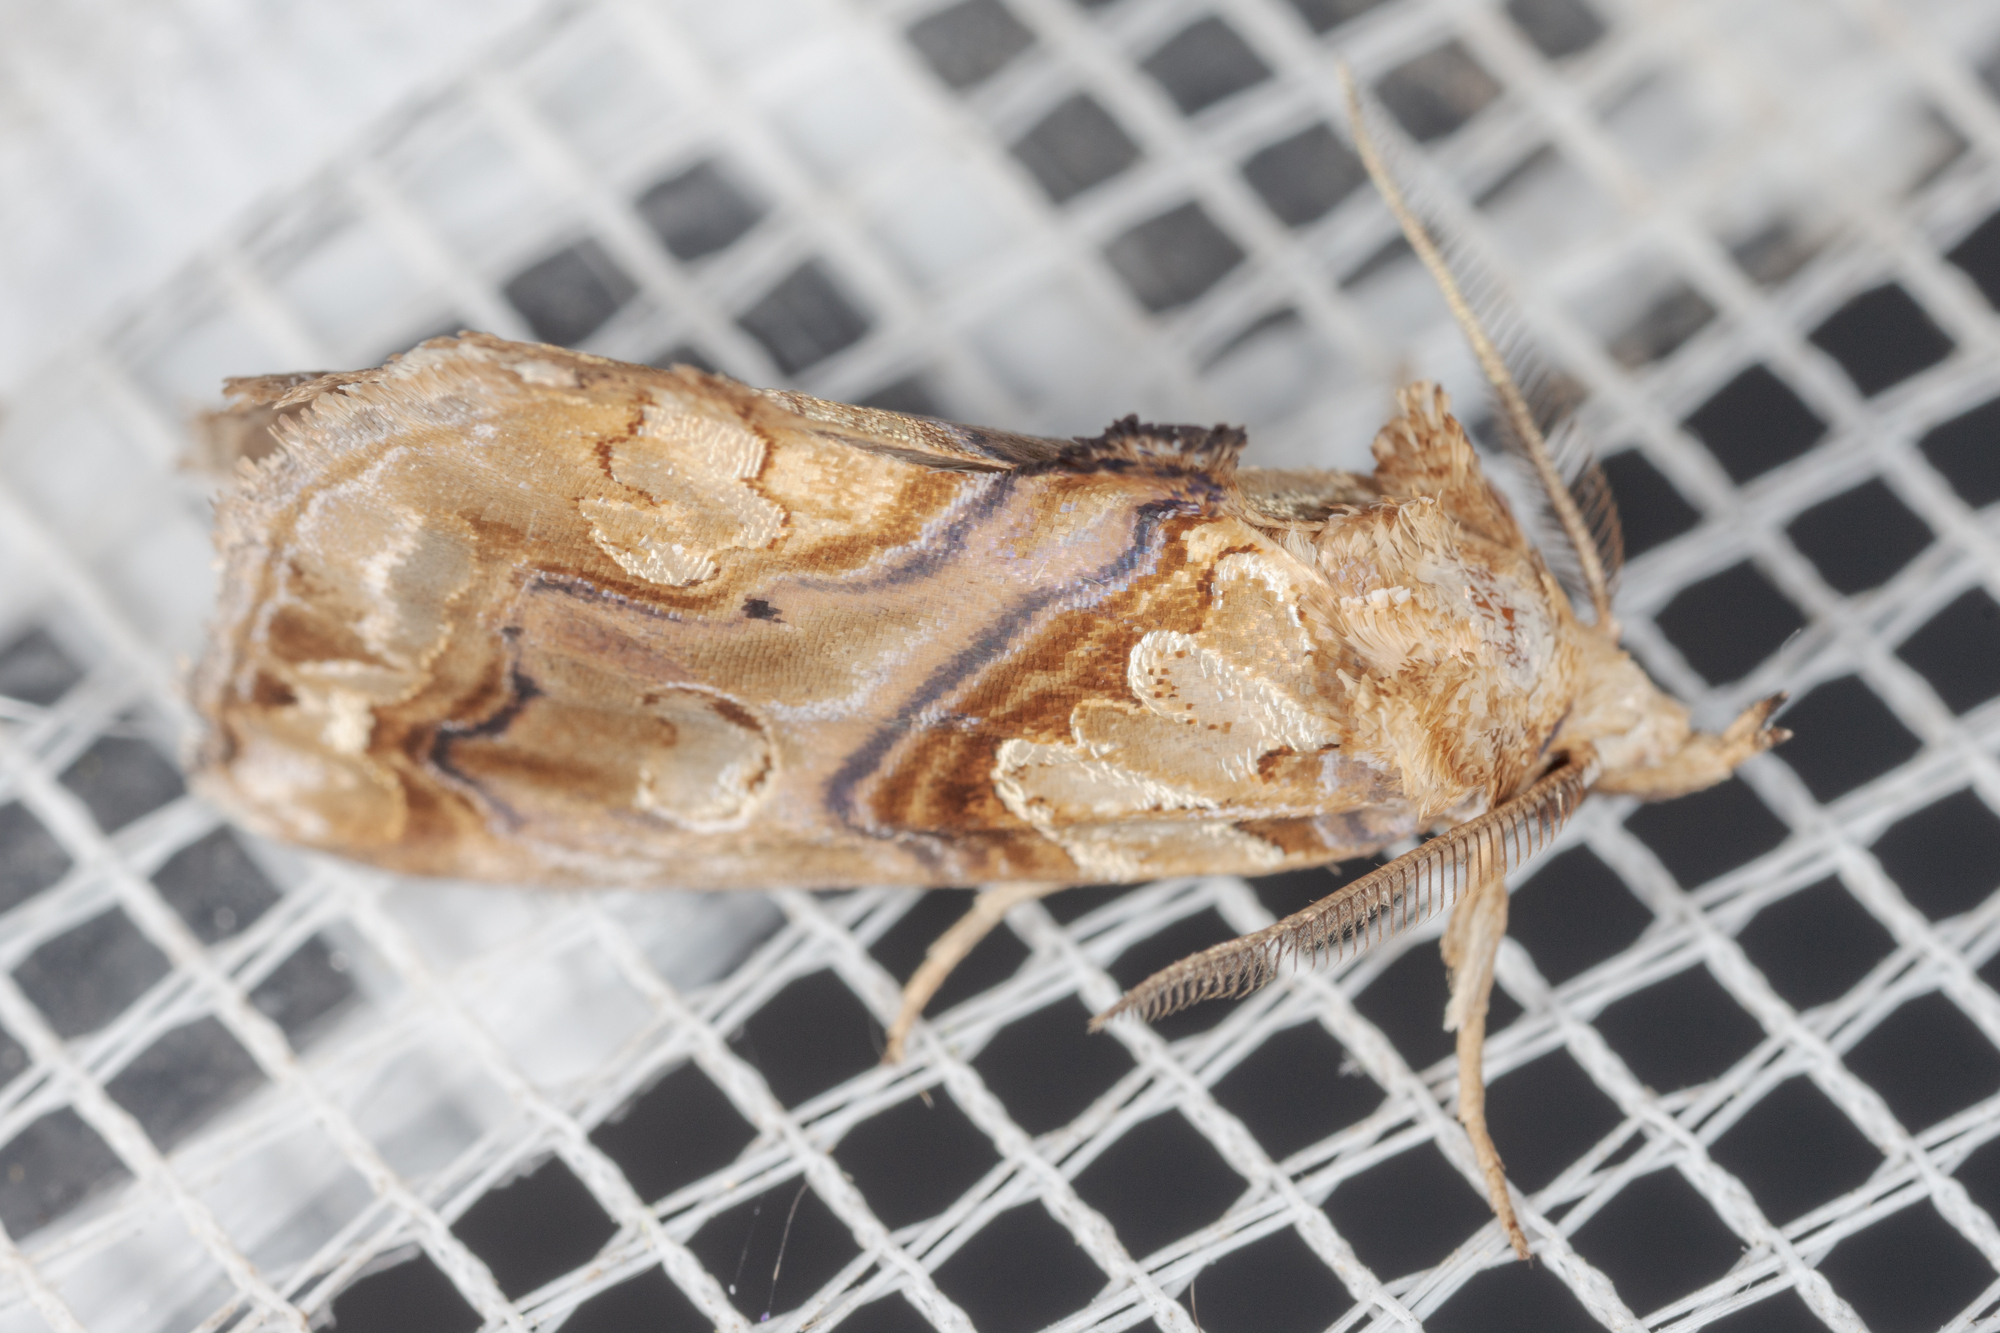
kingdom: Animalia
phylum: Arthropoda
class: Insecta
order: Lepidoptera
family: Erebidae
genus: Plusiodonta
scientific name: Plusiodonta compressipalpis
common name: Moonseed moth
